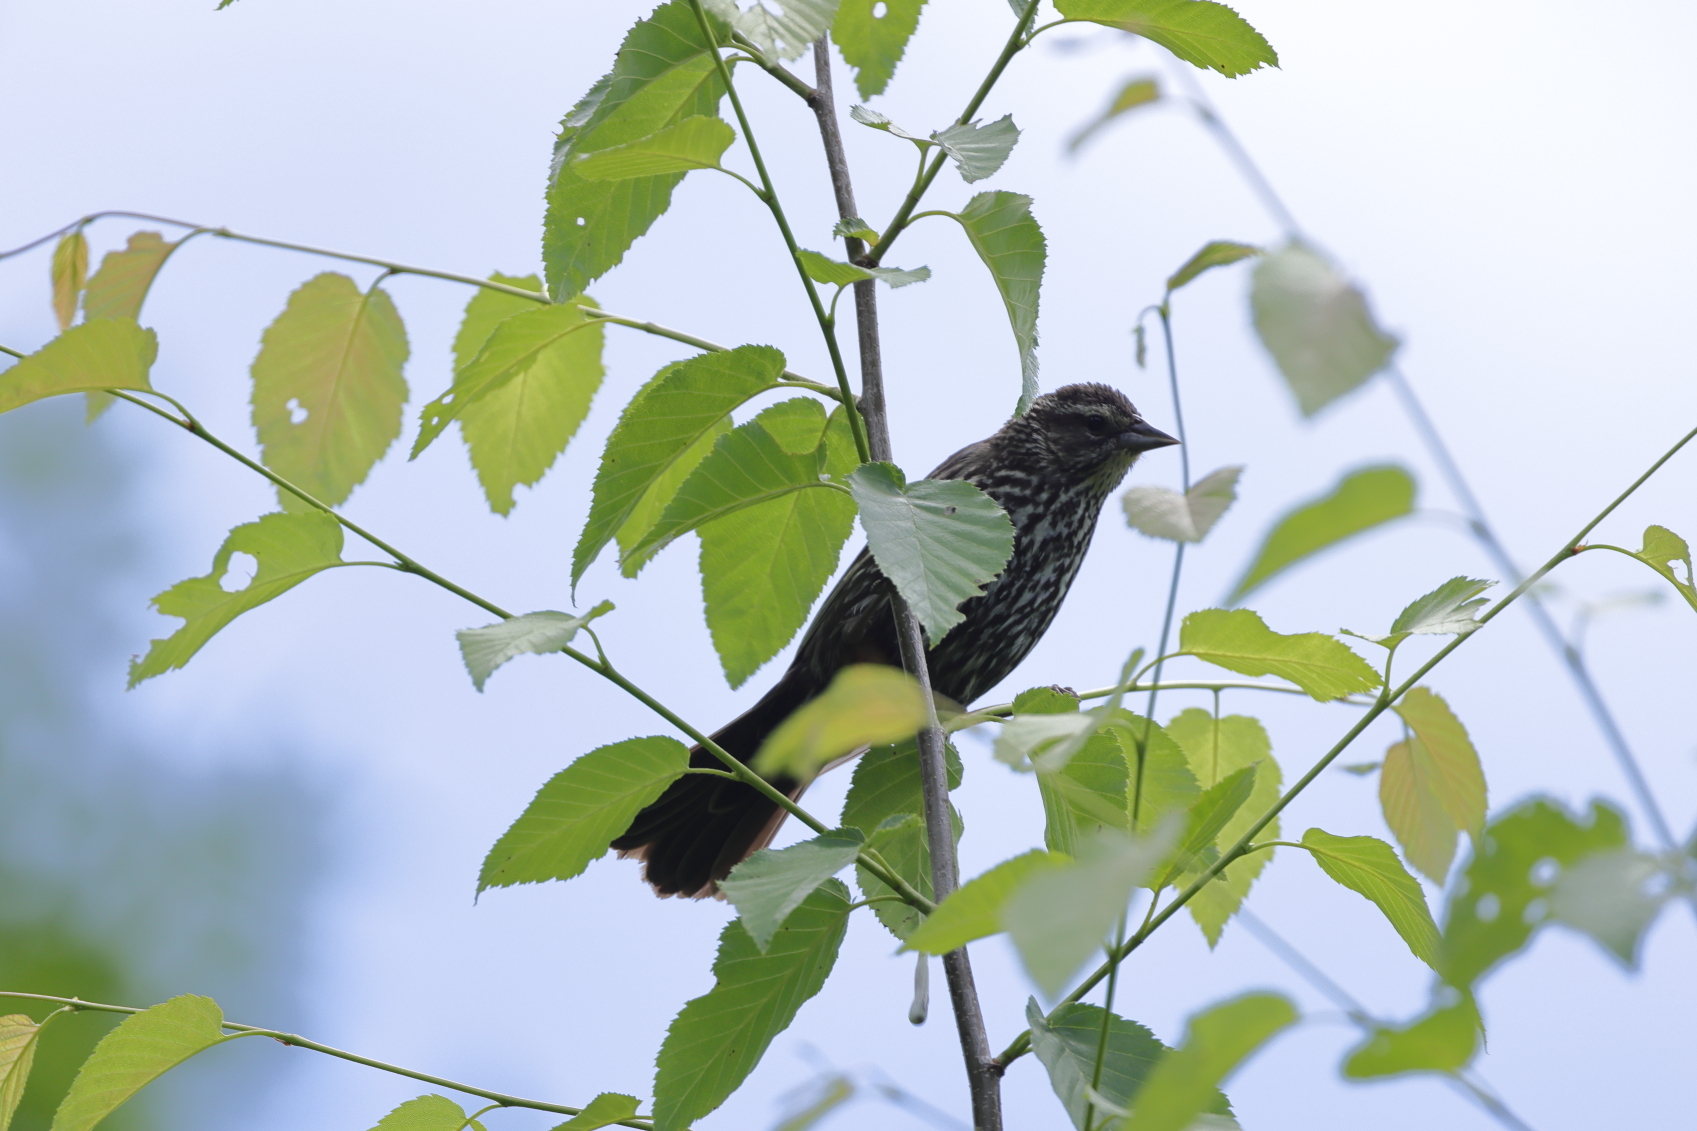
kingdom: Animalia
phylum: Chordata
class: Aves
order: Passeriformes
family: Icteridae
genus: Agelaius
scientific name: Agelaius phoeniceus
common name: Red-winged blackbird
